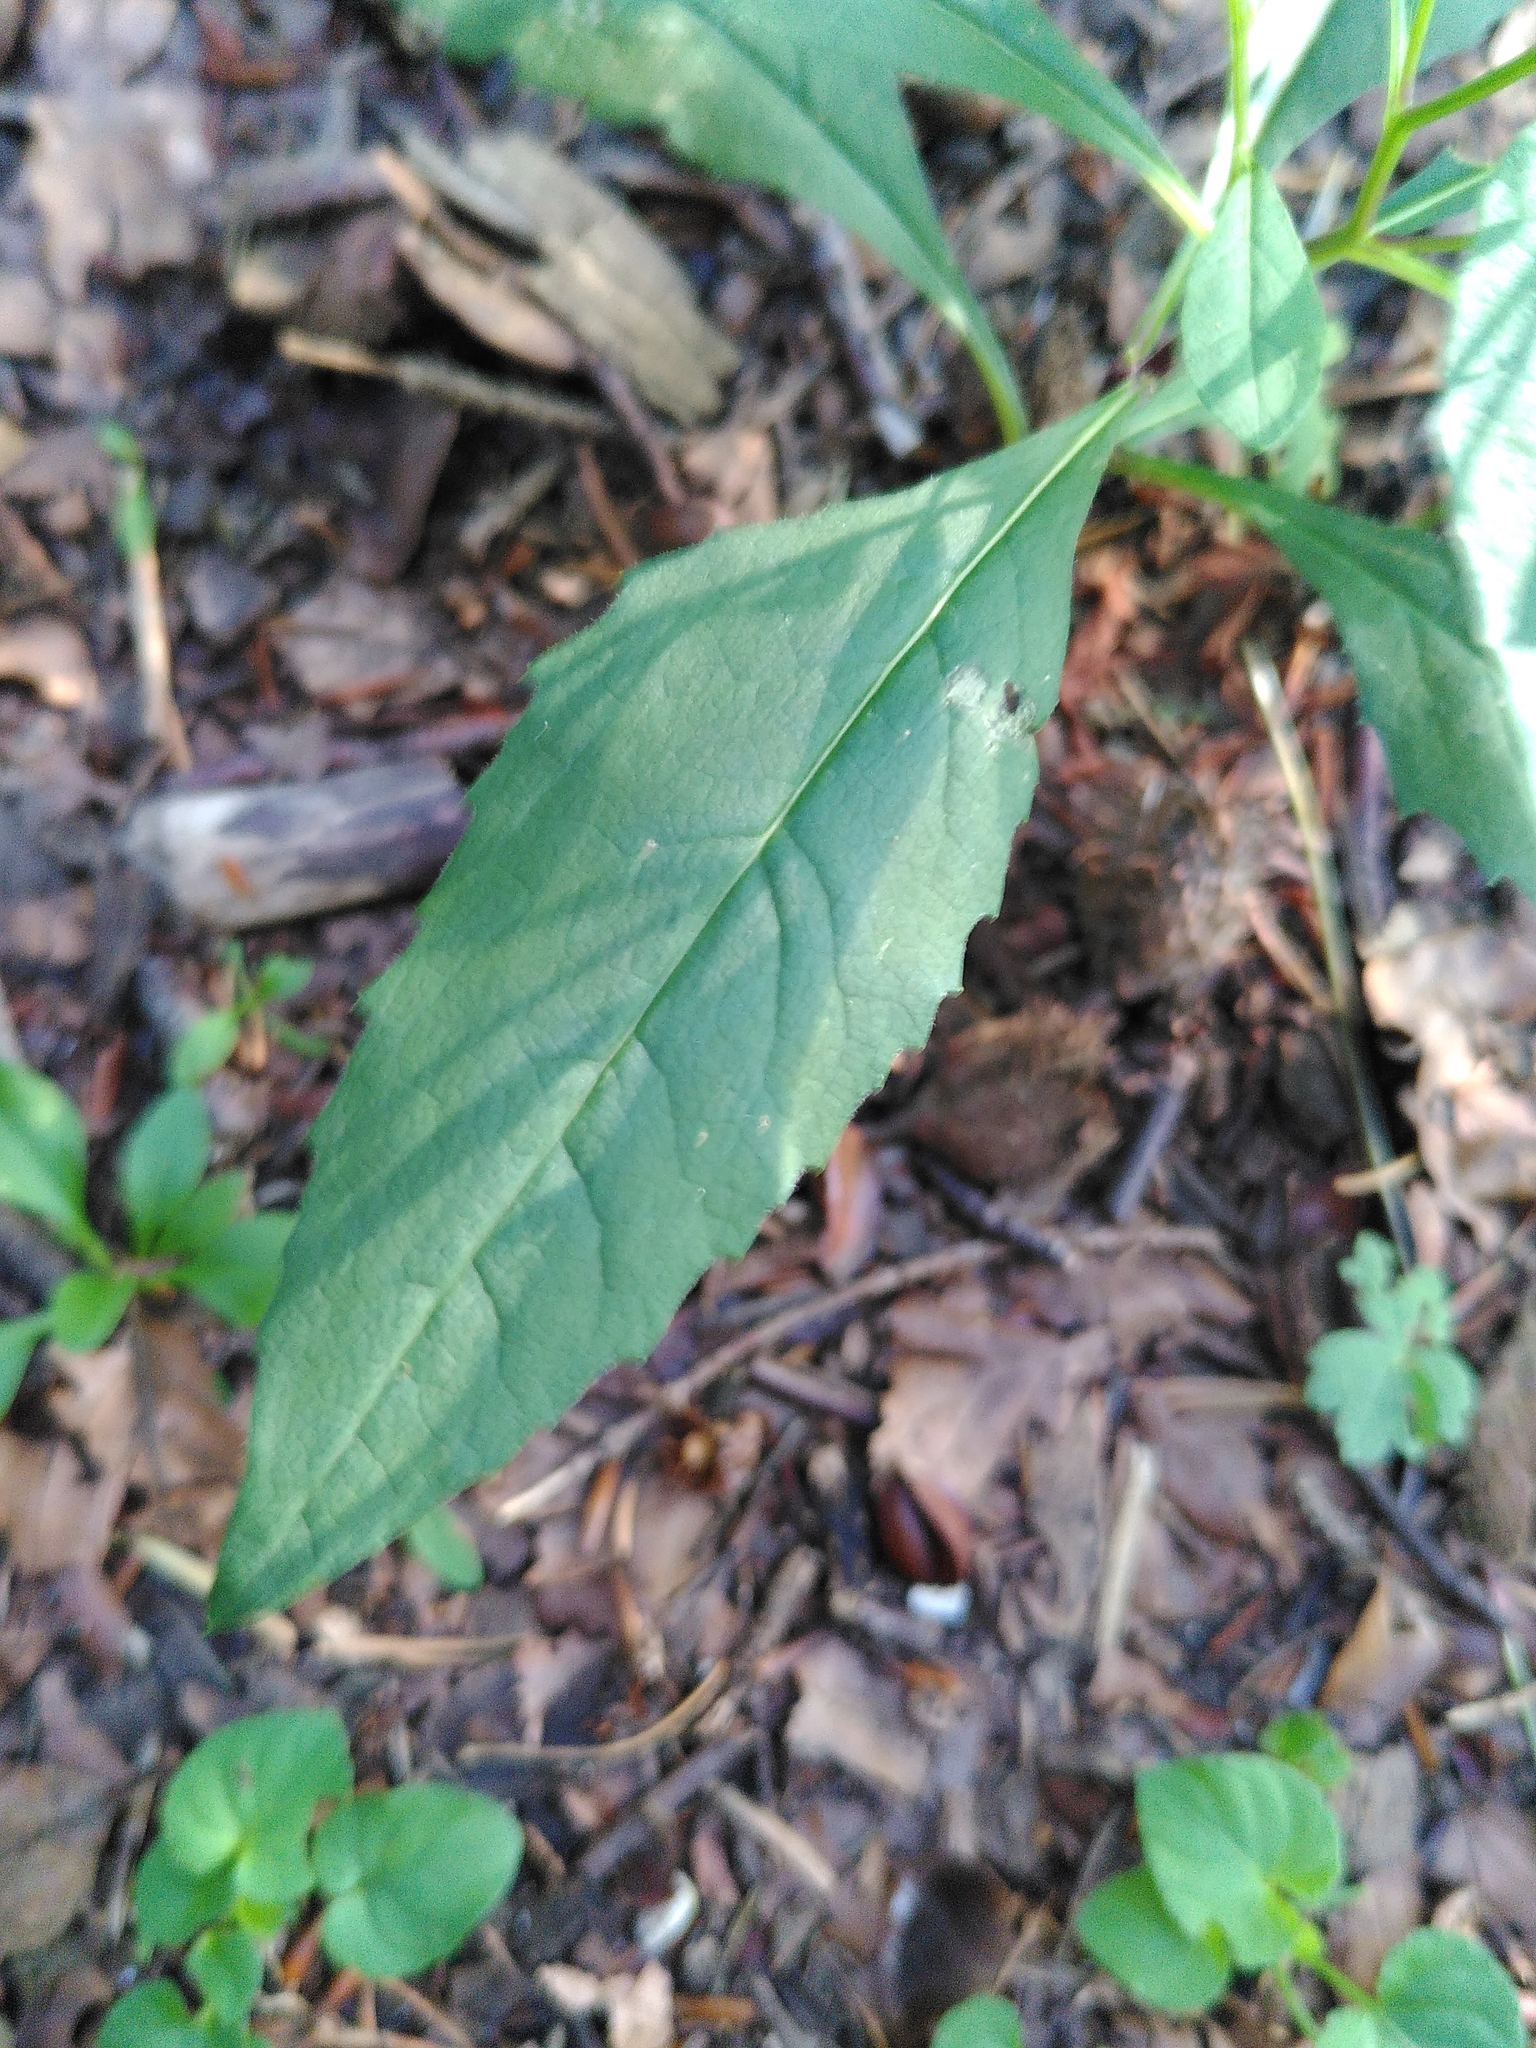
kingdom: Plantae
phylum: Tracheophyta
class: Magnoliopsida
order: Asterales
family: Asteraceae
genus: Senecio
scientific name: Senecio ovatus
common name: Wood ragwort
